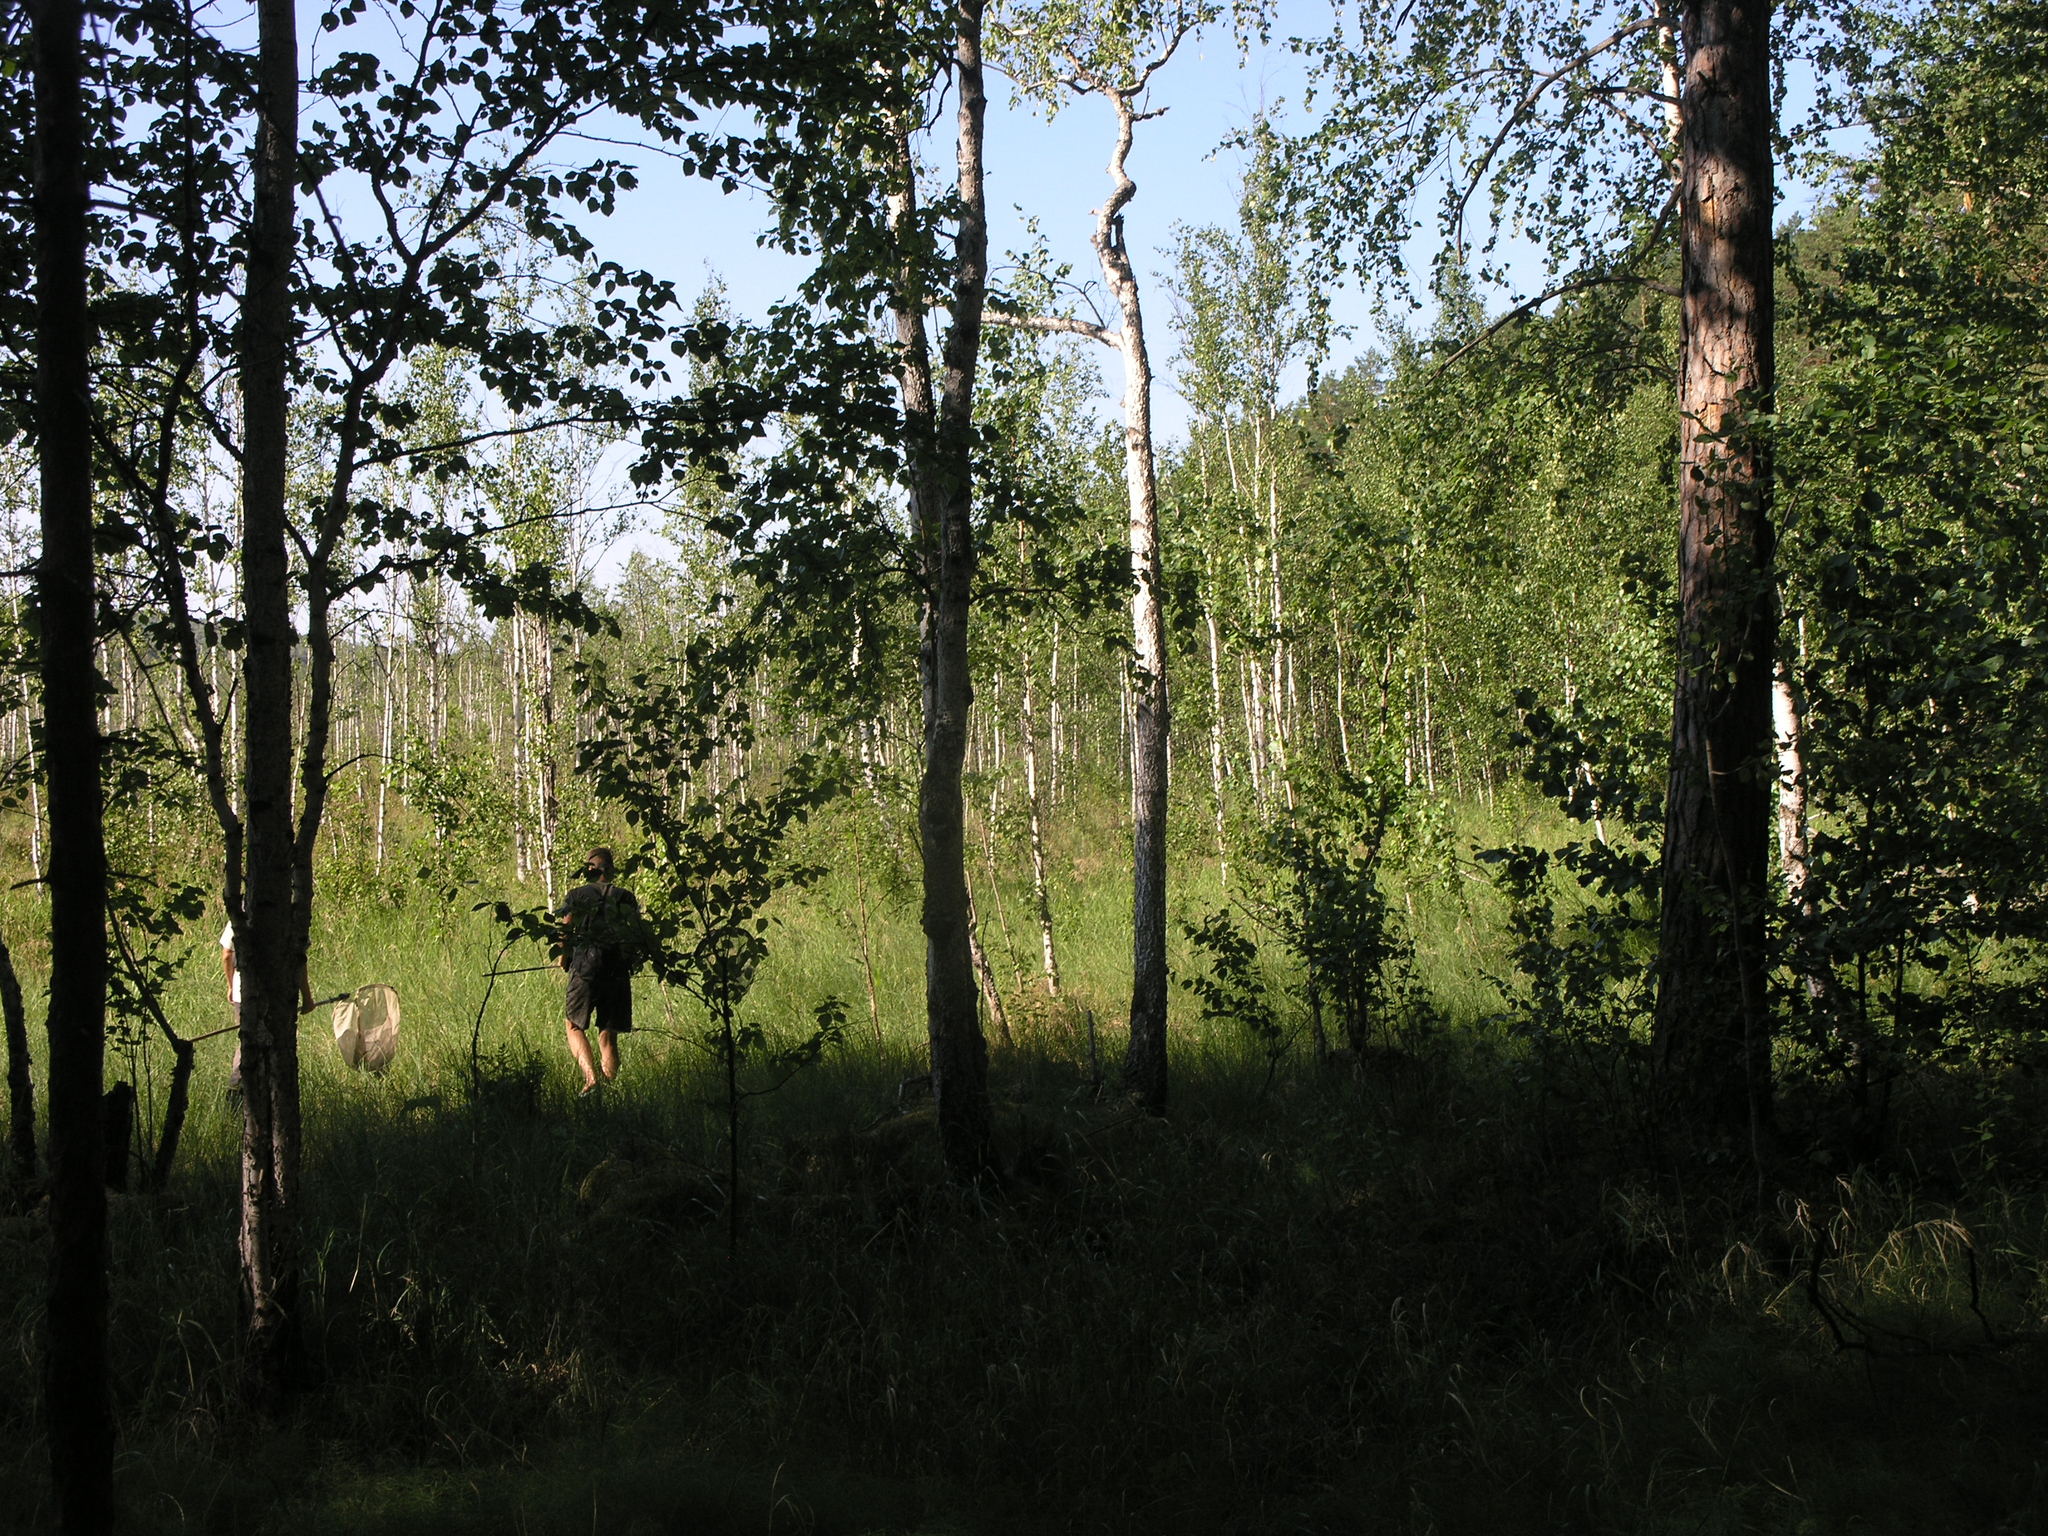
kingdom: Plantae
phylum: Tracheophyta
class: Magnoliopsida
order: Fagales
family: Betulaceae
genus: Betula
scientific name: Betula pubescens
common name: Downy birch
